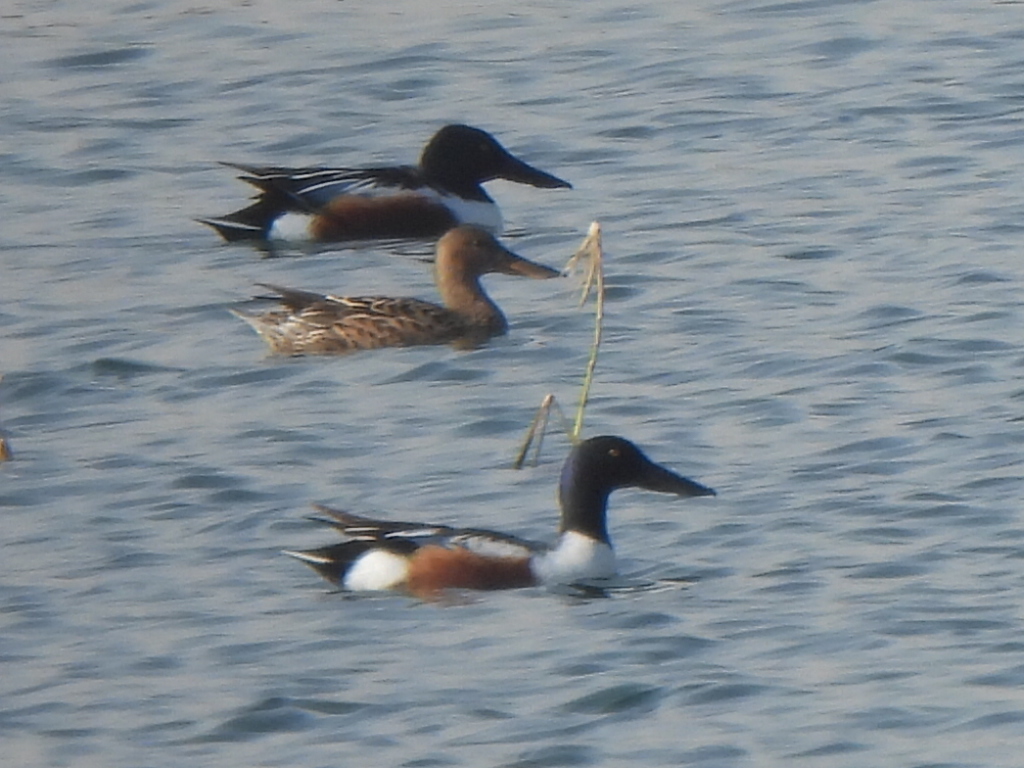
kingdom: Animalia
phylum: Chordata
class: Aves
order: Anseriformes
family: Anatidae
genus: Spatula
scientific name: Spatula clypeata
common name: Northern shoveler
